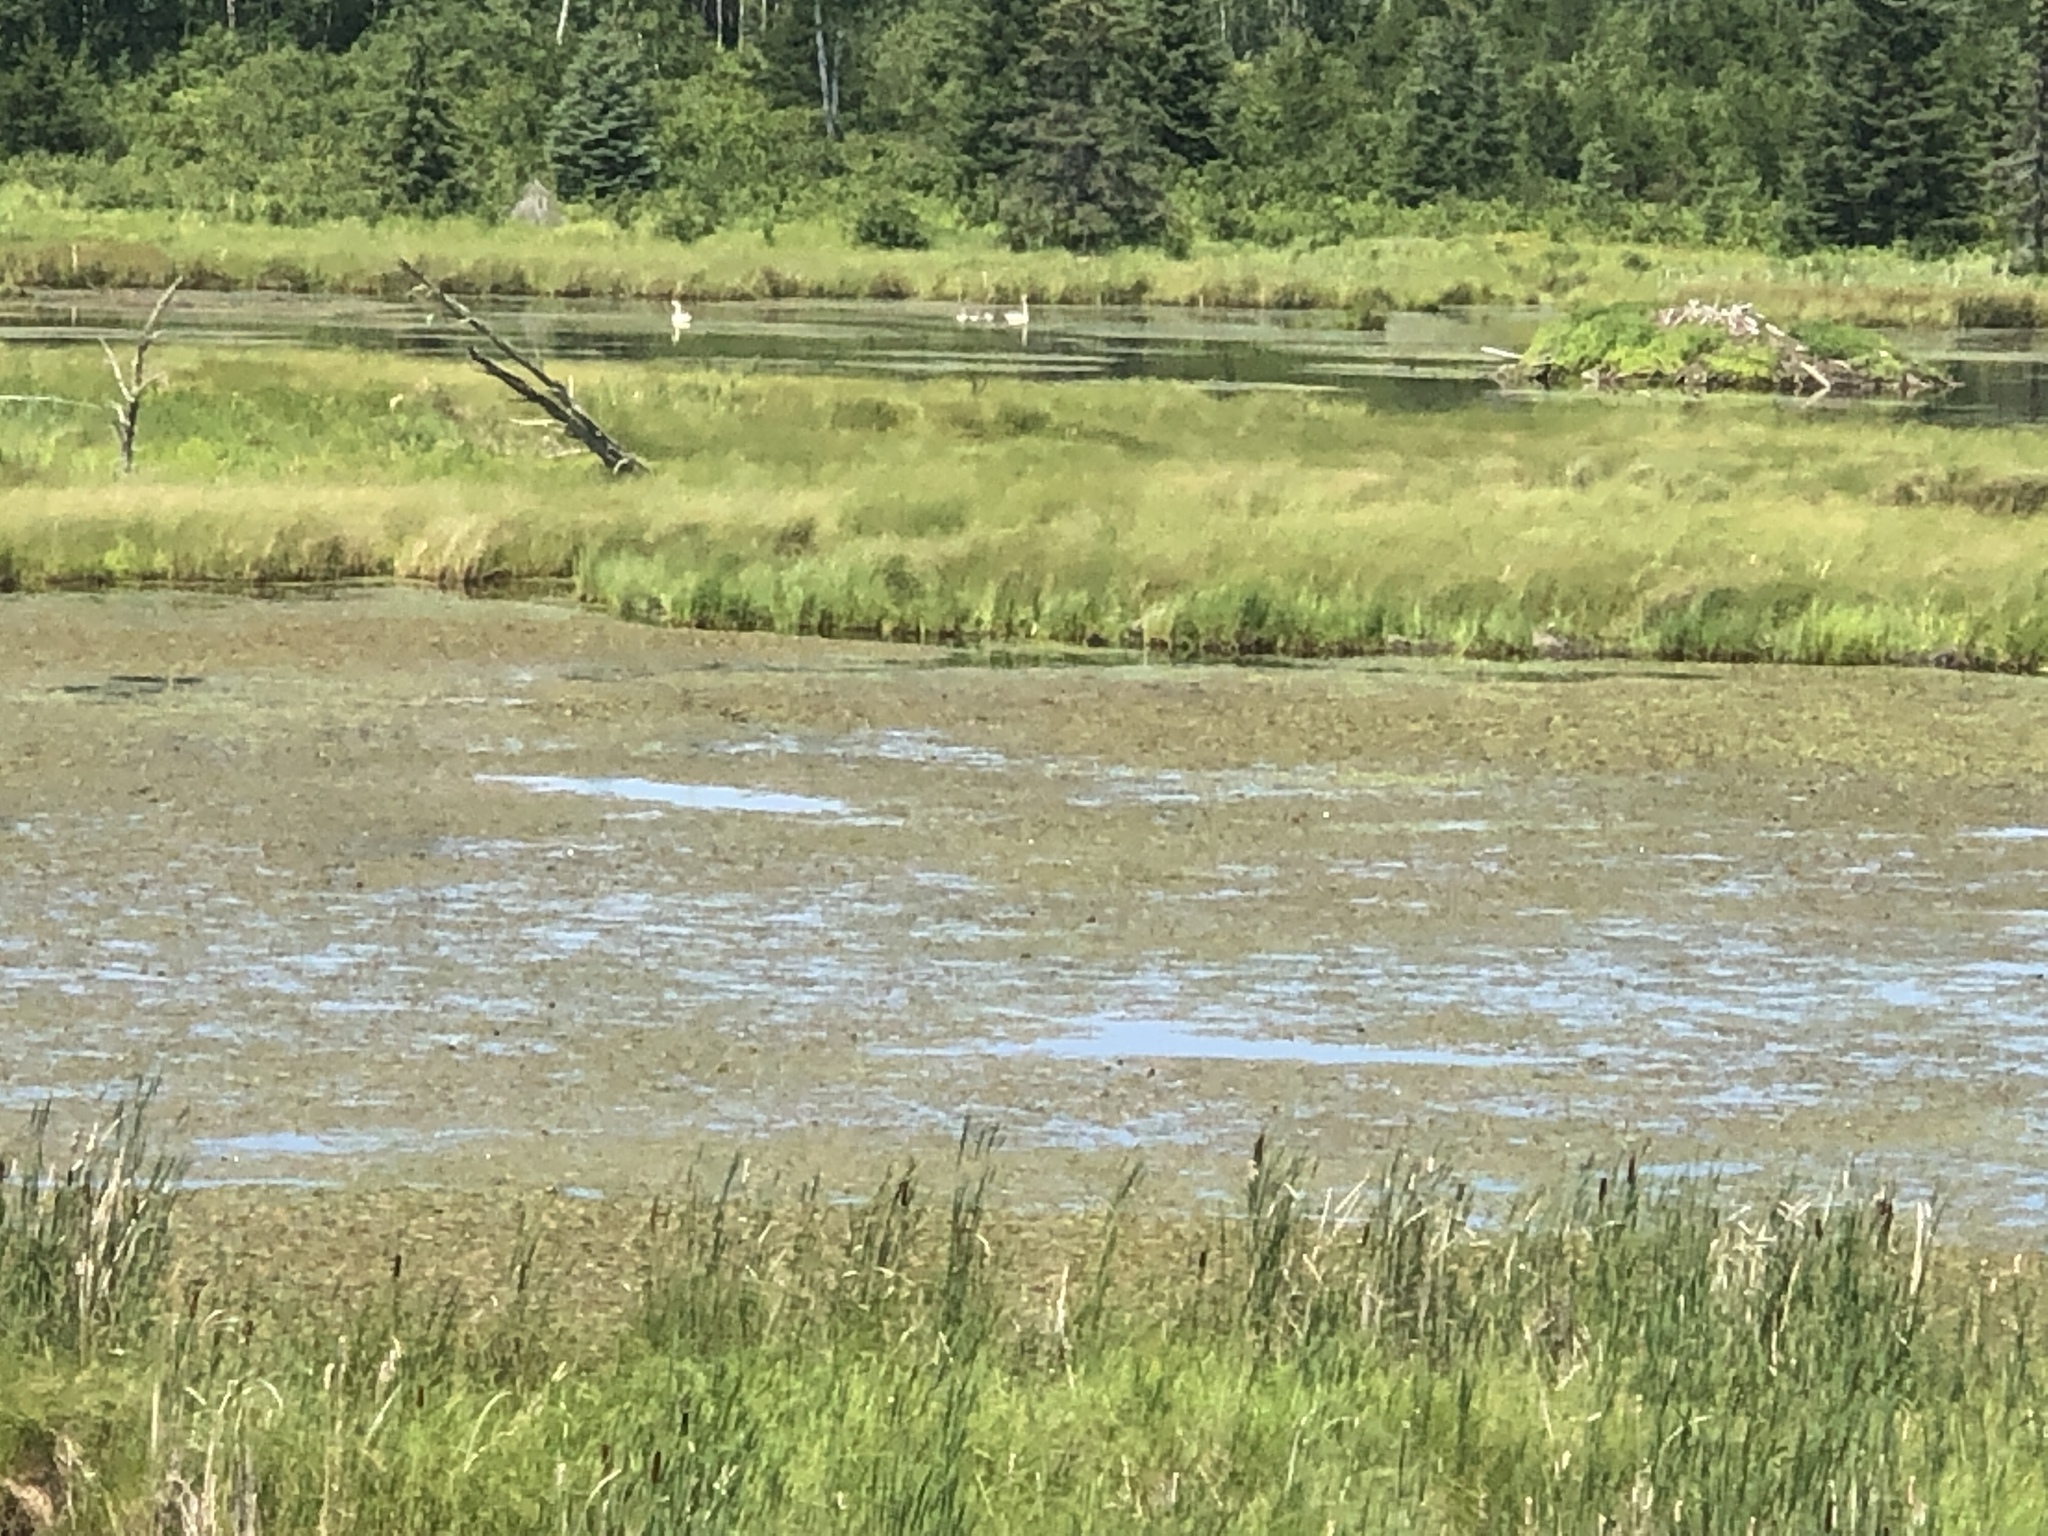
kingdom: Animalia
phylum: Chordata
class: Aves
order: Anseriformes
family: Anatidae
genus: Cygnus
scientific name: Cygnus buccinator
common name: Trumpeter swan
